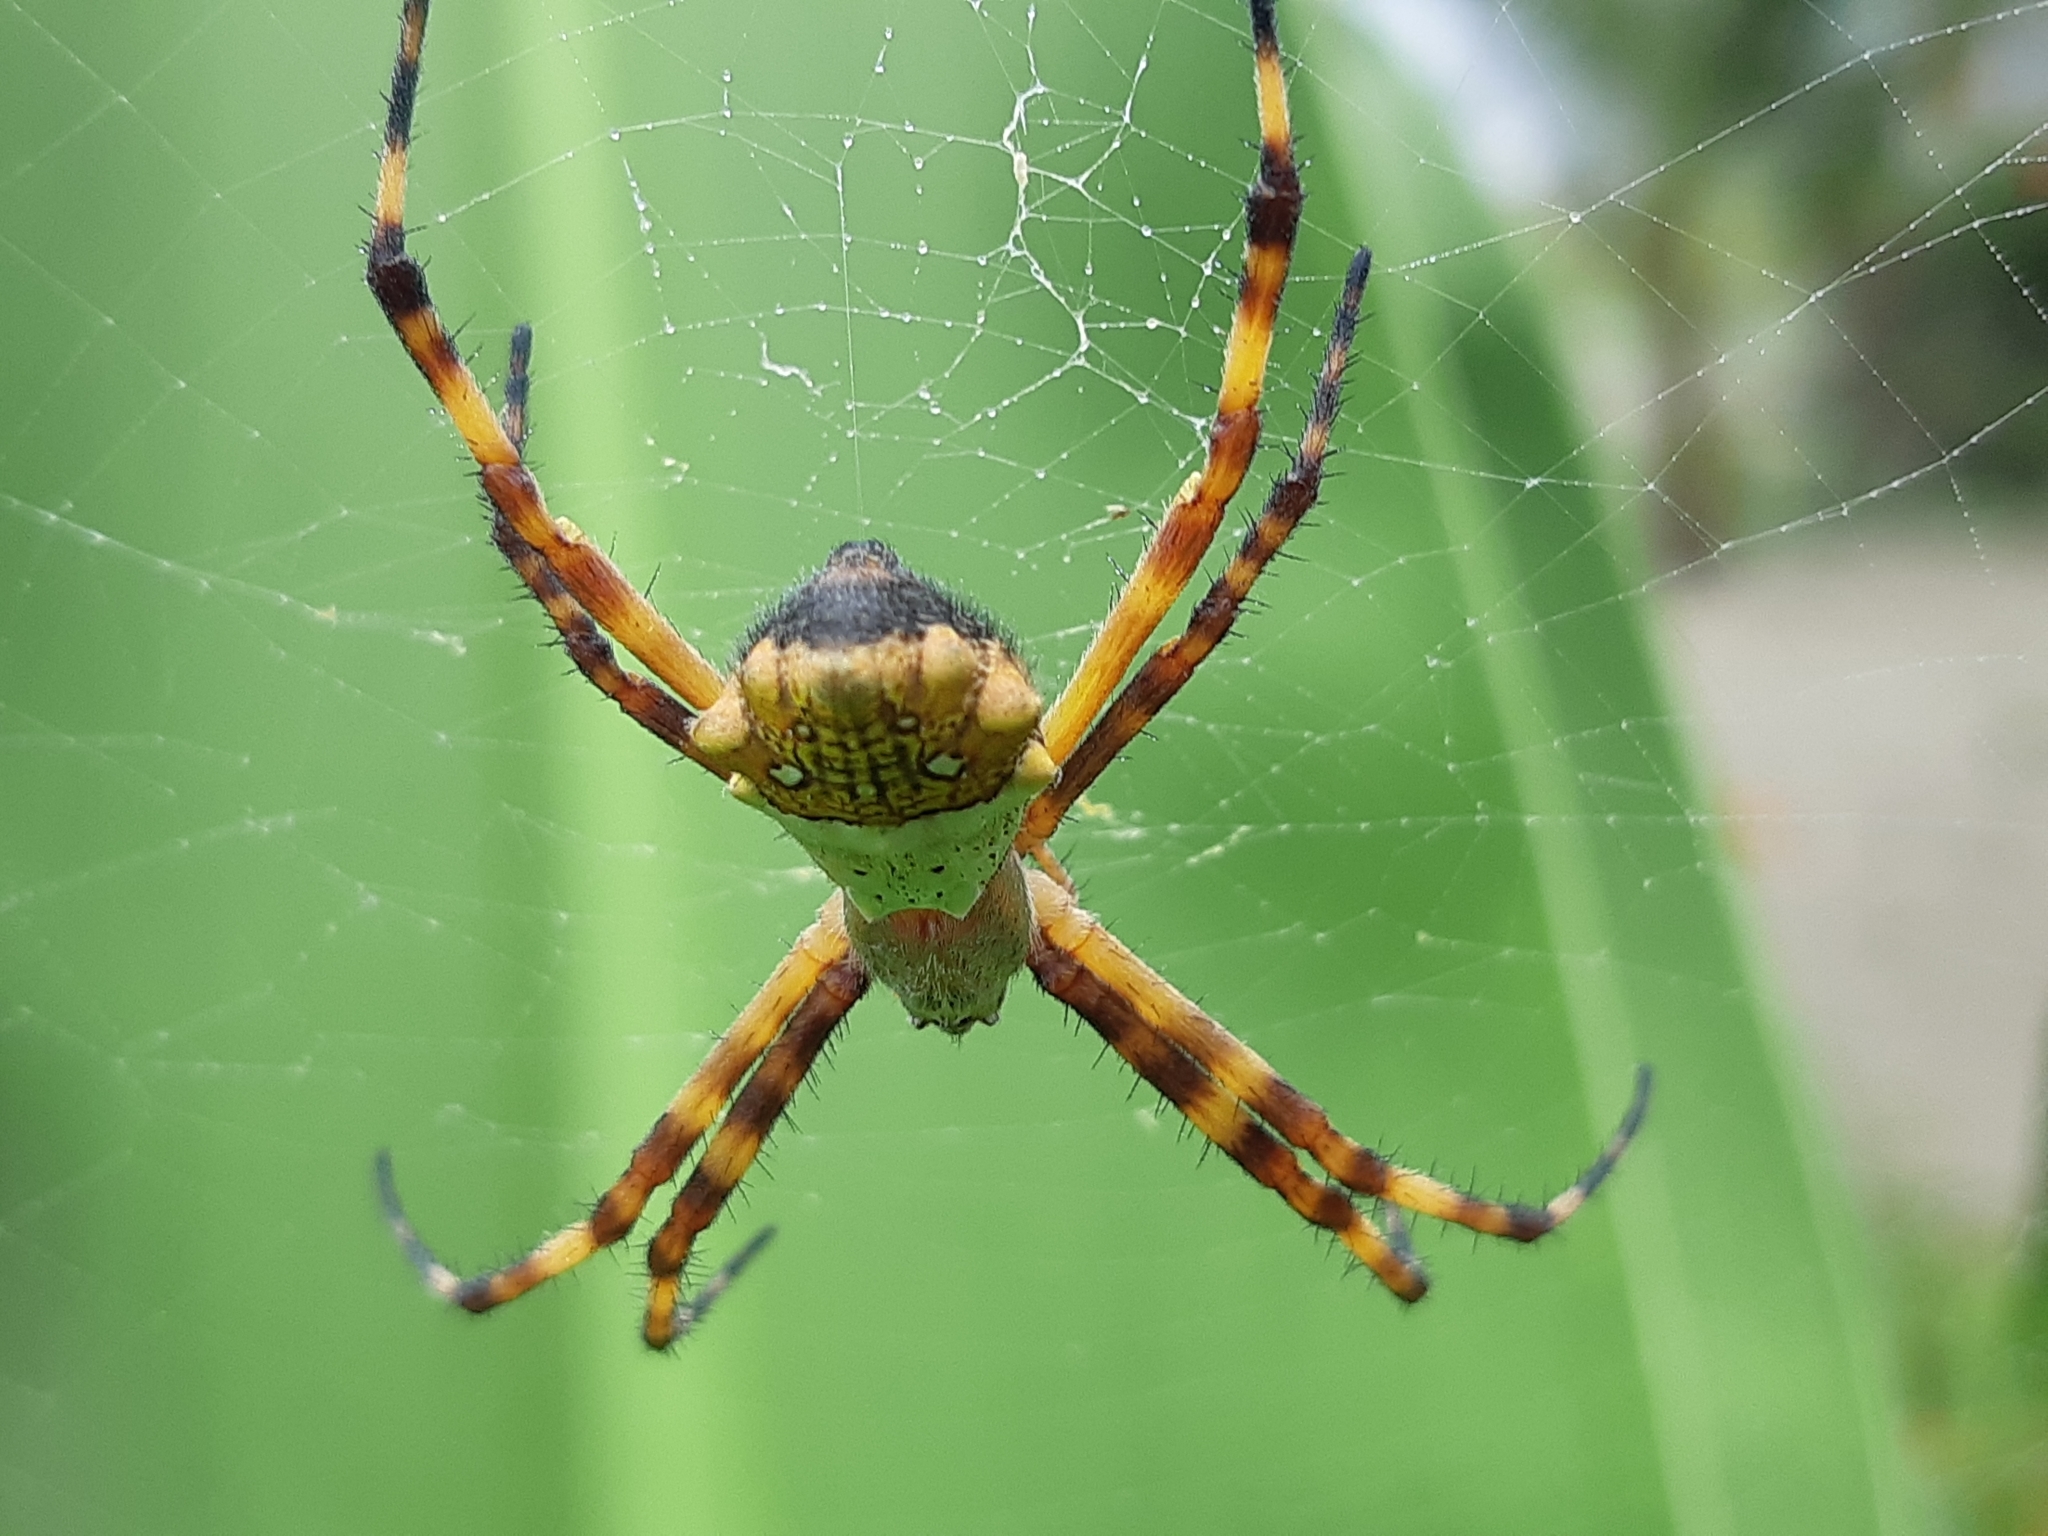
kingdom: Animalia
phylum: Arthropoda
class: Arachnida
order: Araneae
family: Araneidae
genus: Argiope
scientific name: Argiope argentata
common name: Orb weavers
